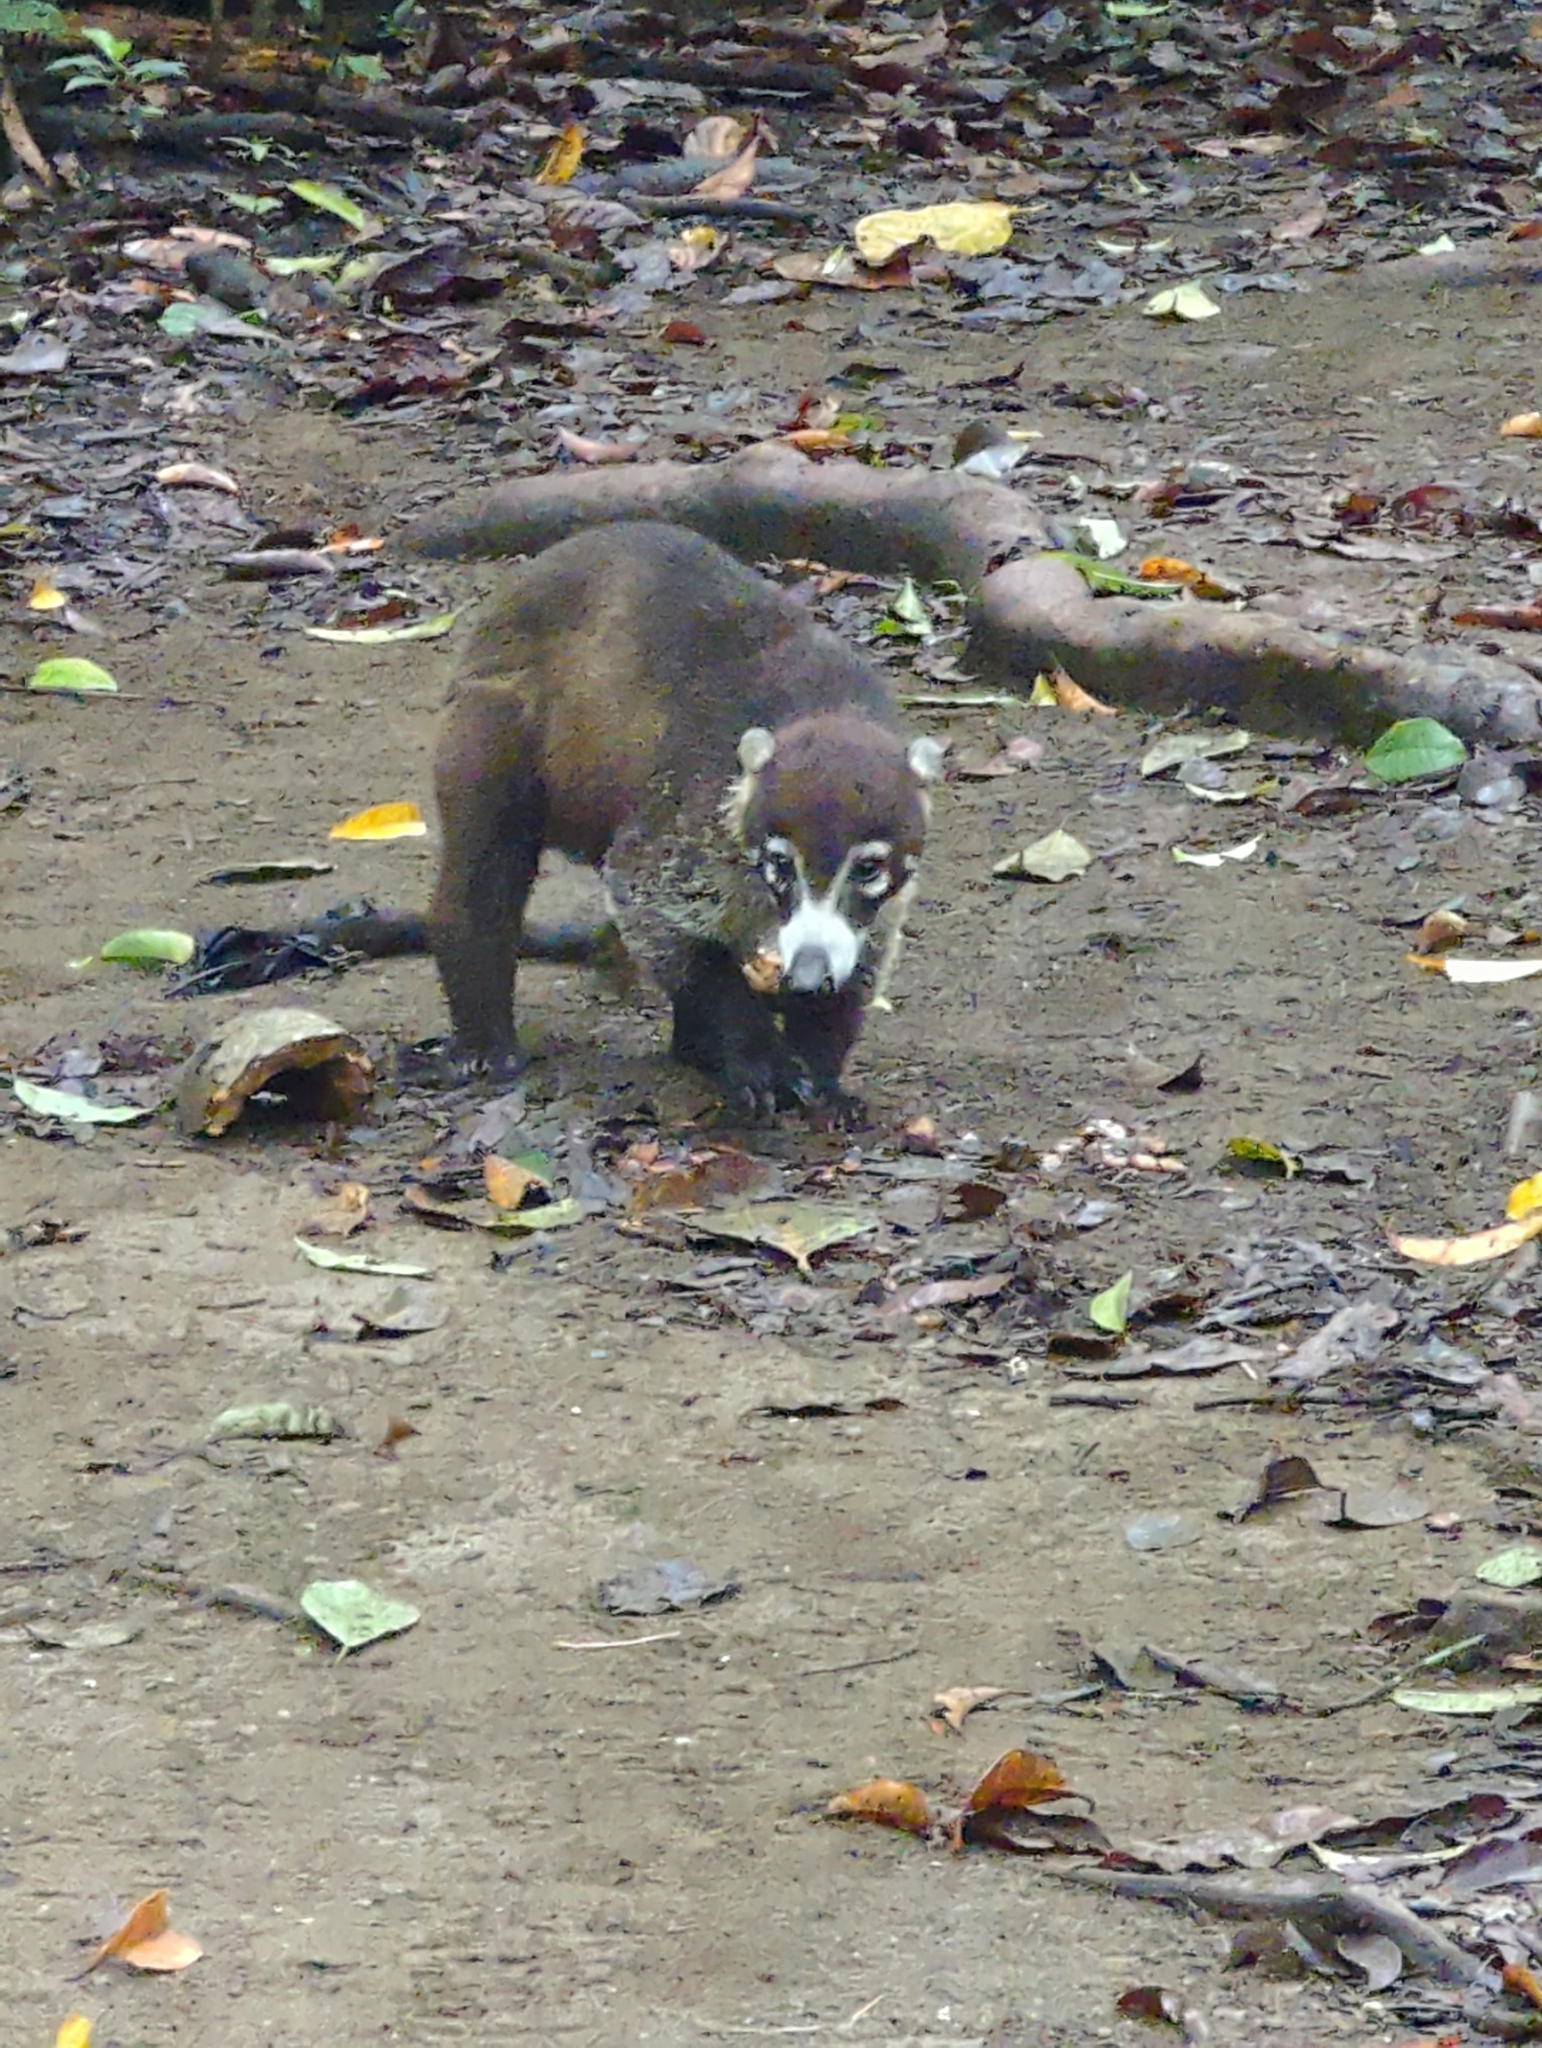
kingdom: Animalia
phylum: Chordata
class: Mammalia
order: Carnivora
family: Procyonidae
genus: Nasua
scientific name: Nasua narica
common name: White-nosed coati
